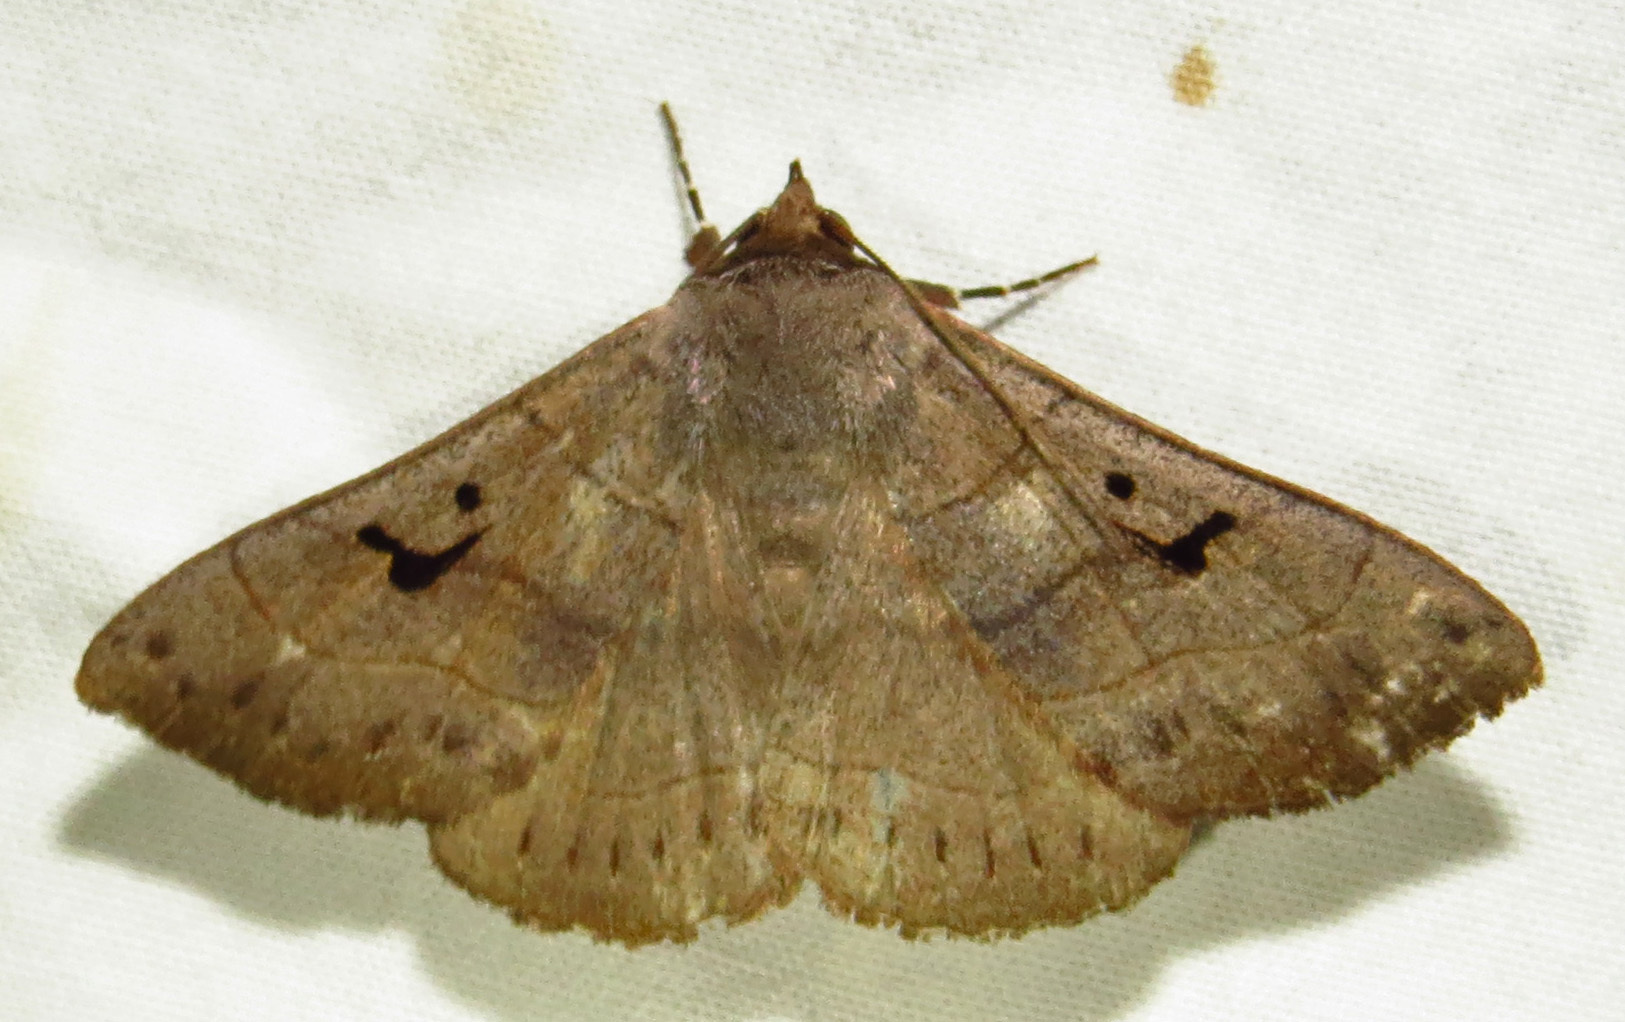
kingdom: Animalia
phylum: Arthropoda
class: Insecta
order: Lepidoptera
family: Erebidae
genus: Panopoda
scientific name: Panopoda carneicosta
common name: Brown panopoda moth
